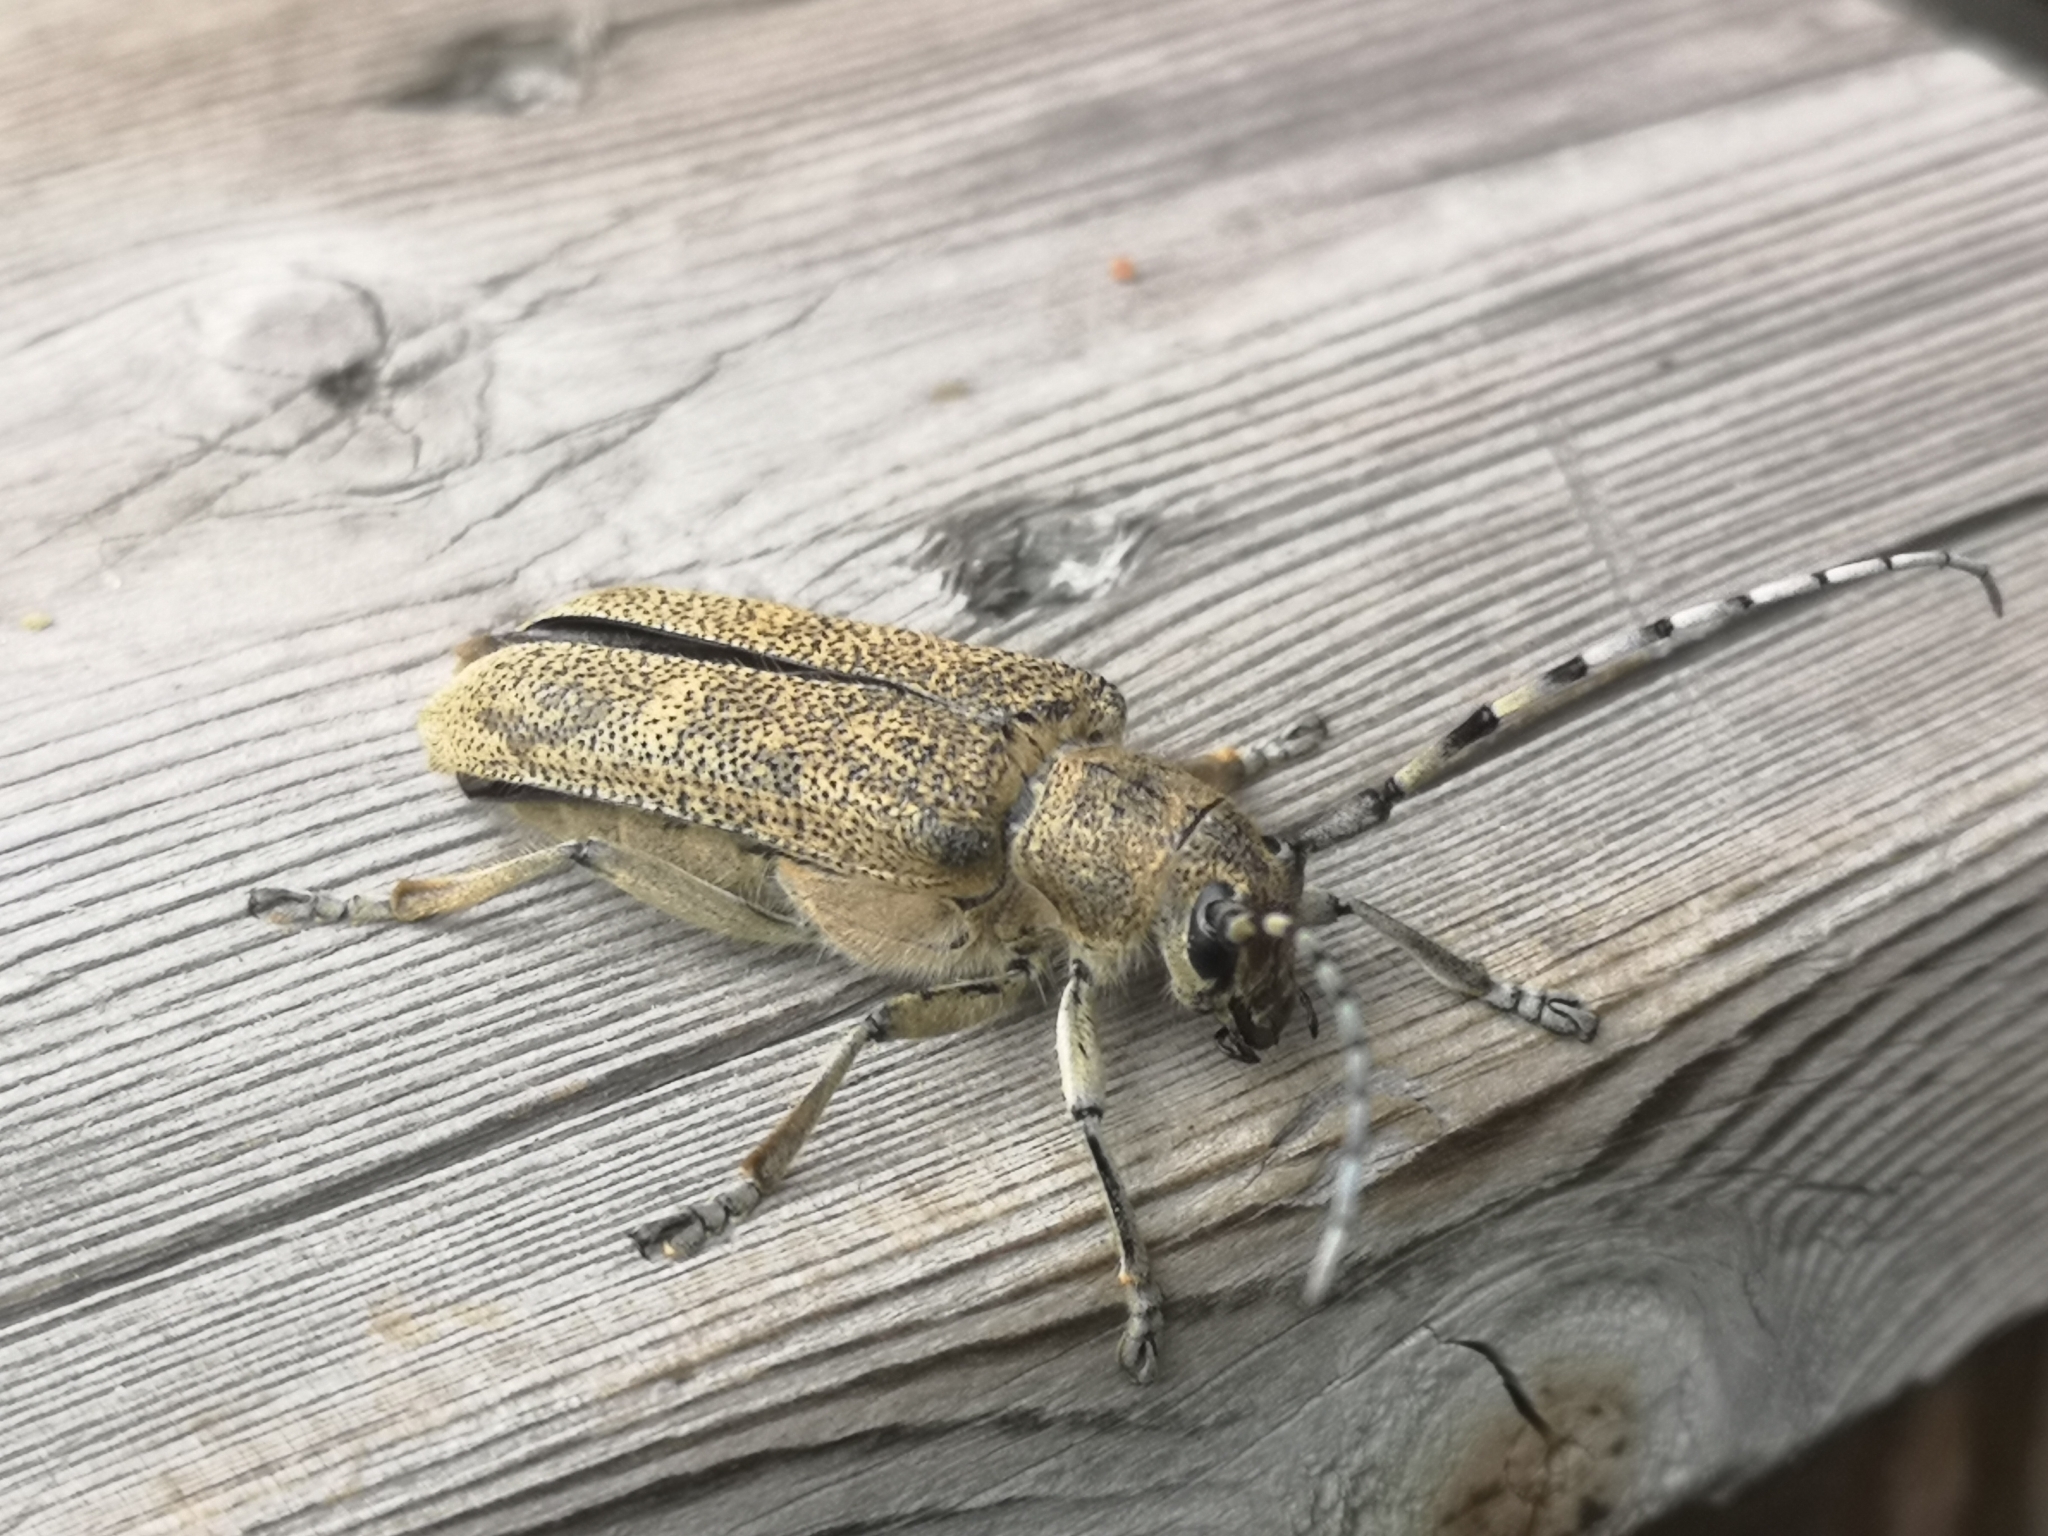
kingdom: Animalia
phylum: Arthropoda
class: Insecta
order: Coleoptera
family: Cerambycidae
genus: Saperda
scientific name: Saperda carcharias
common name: Poplar borer
